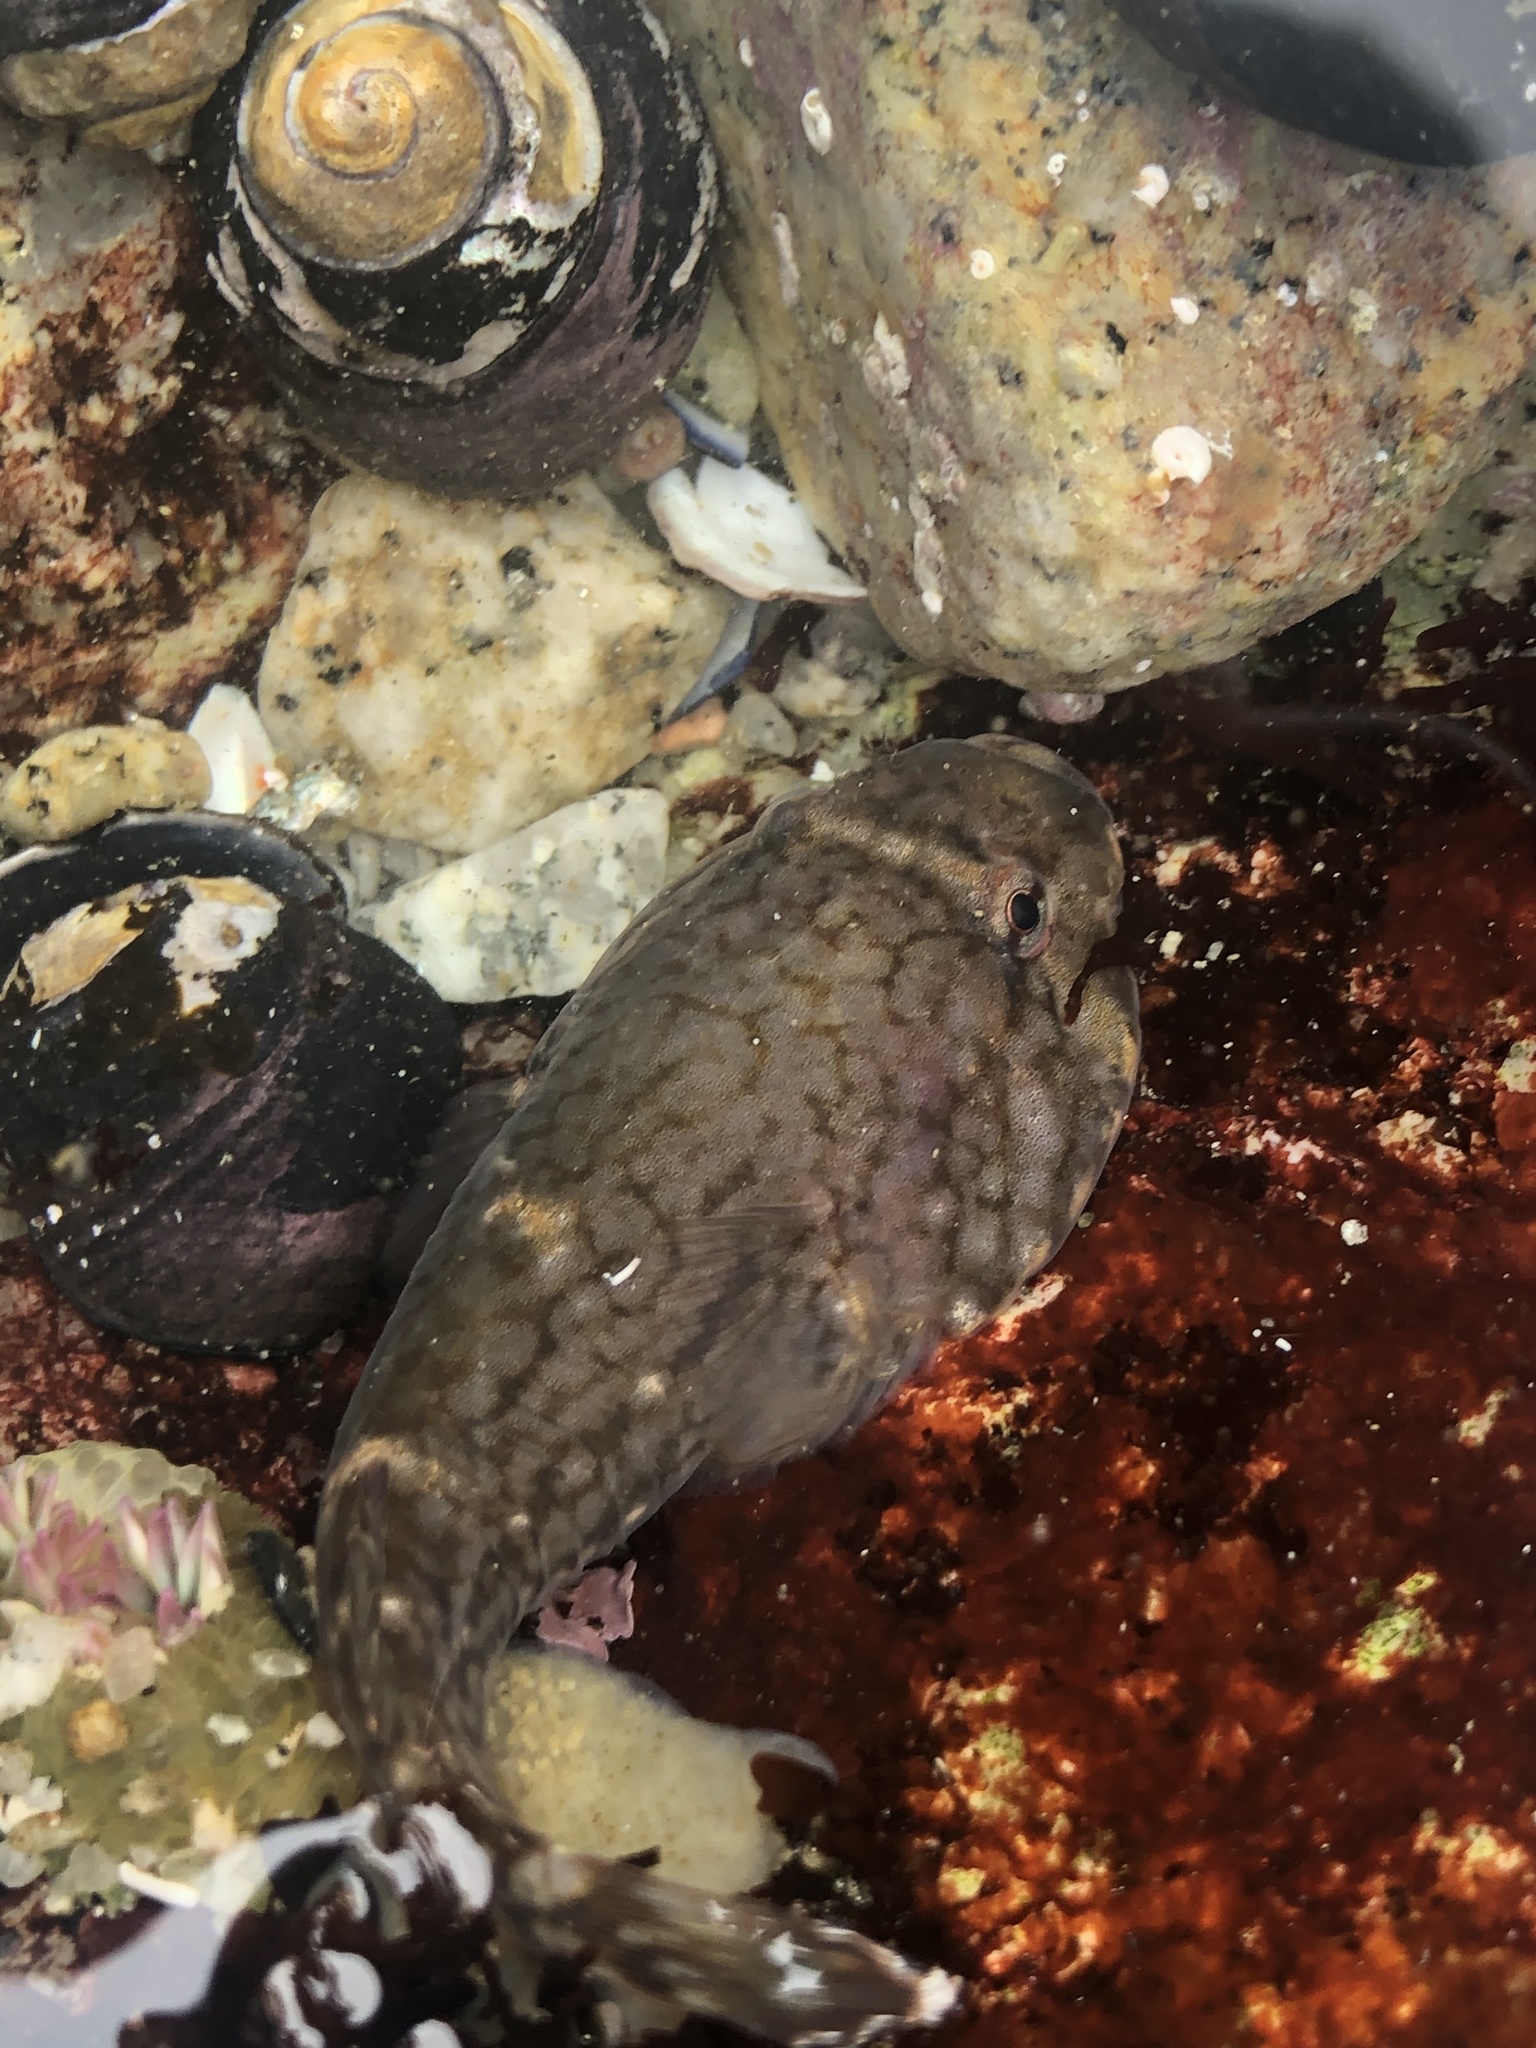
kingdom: Animalia
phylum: Chordata
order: Gobiesociformes
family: Gobiesocidae
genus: Gobiesox
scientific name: Gobiesox maeandricus
